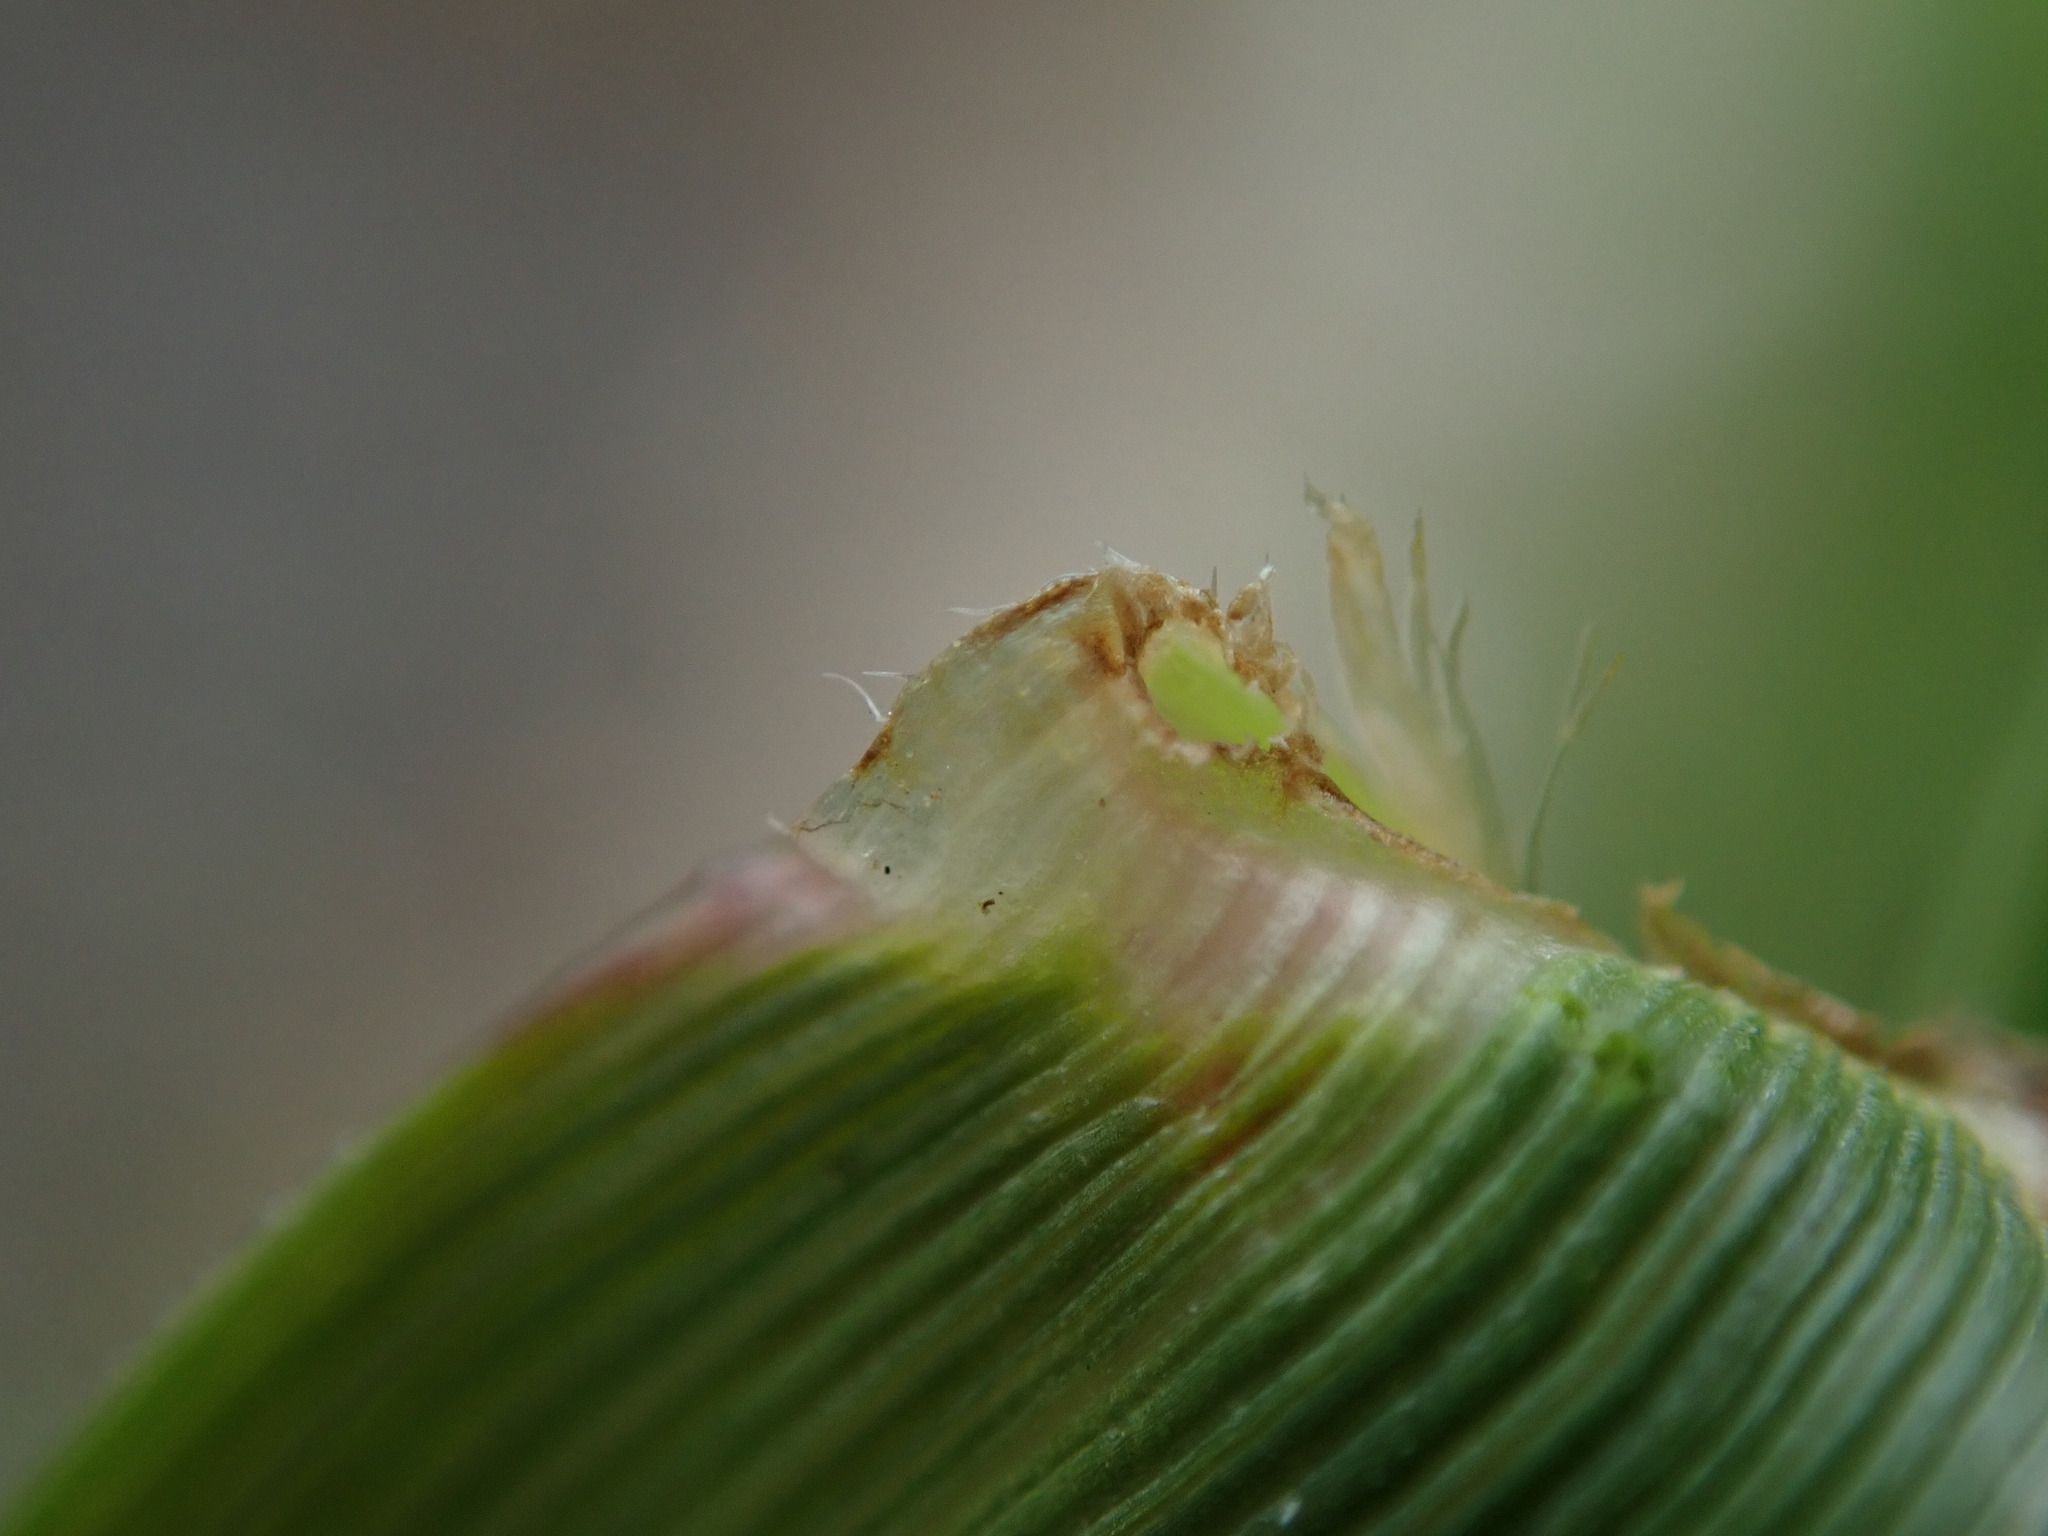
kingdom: Plantae
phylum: Tracheophyta
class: Liliopsida
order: Poales
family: Poaceae
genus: Lolium
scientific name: Lolium arundinaceum
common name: Reed fescue
